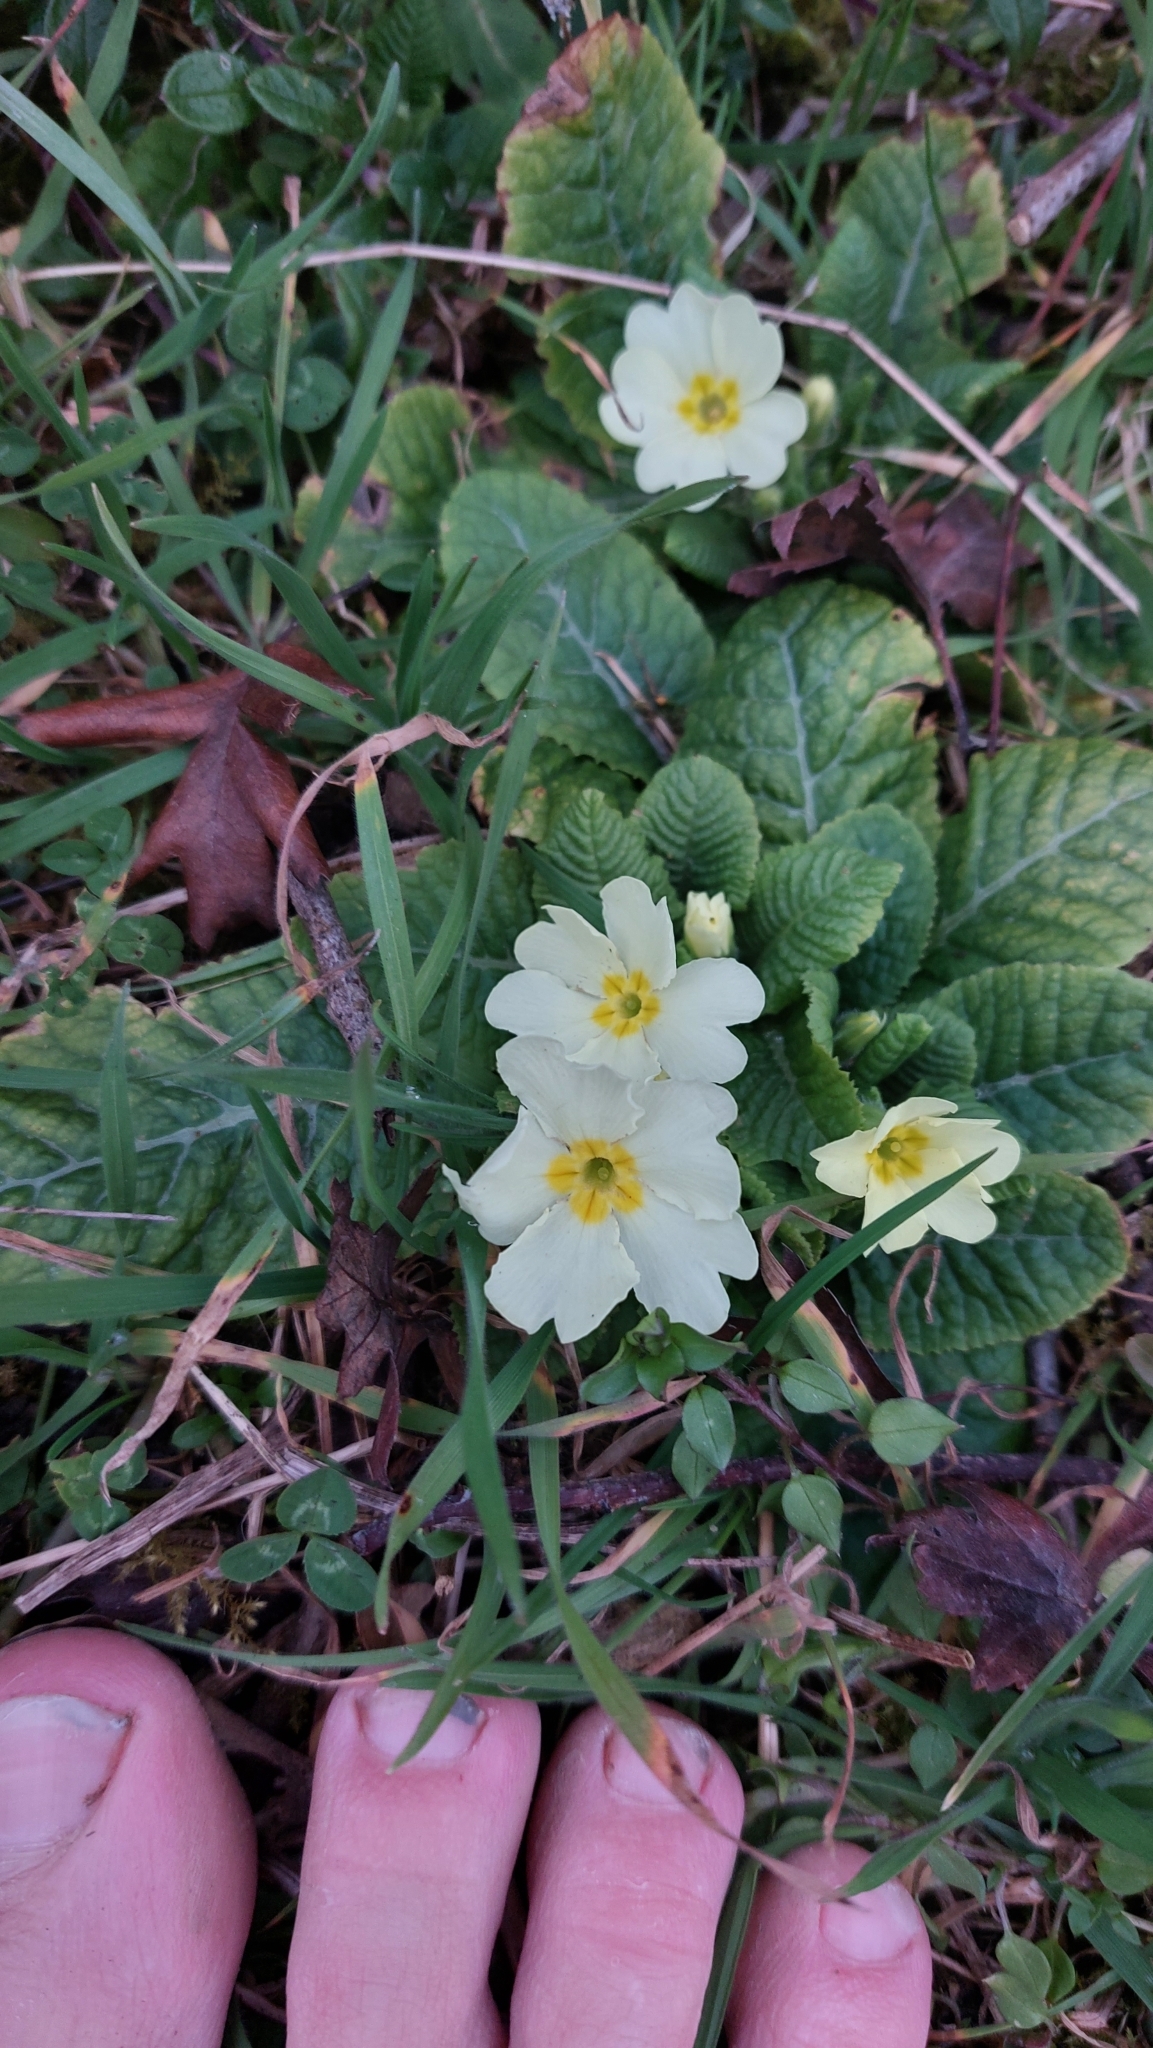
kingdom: Plantae
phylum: Tracheophyta
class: Magnoliopsida
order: Ericales
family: Primulaceae
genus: Primula
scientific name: Primula vulgaris
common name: Primrose
